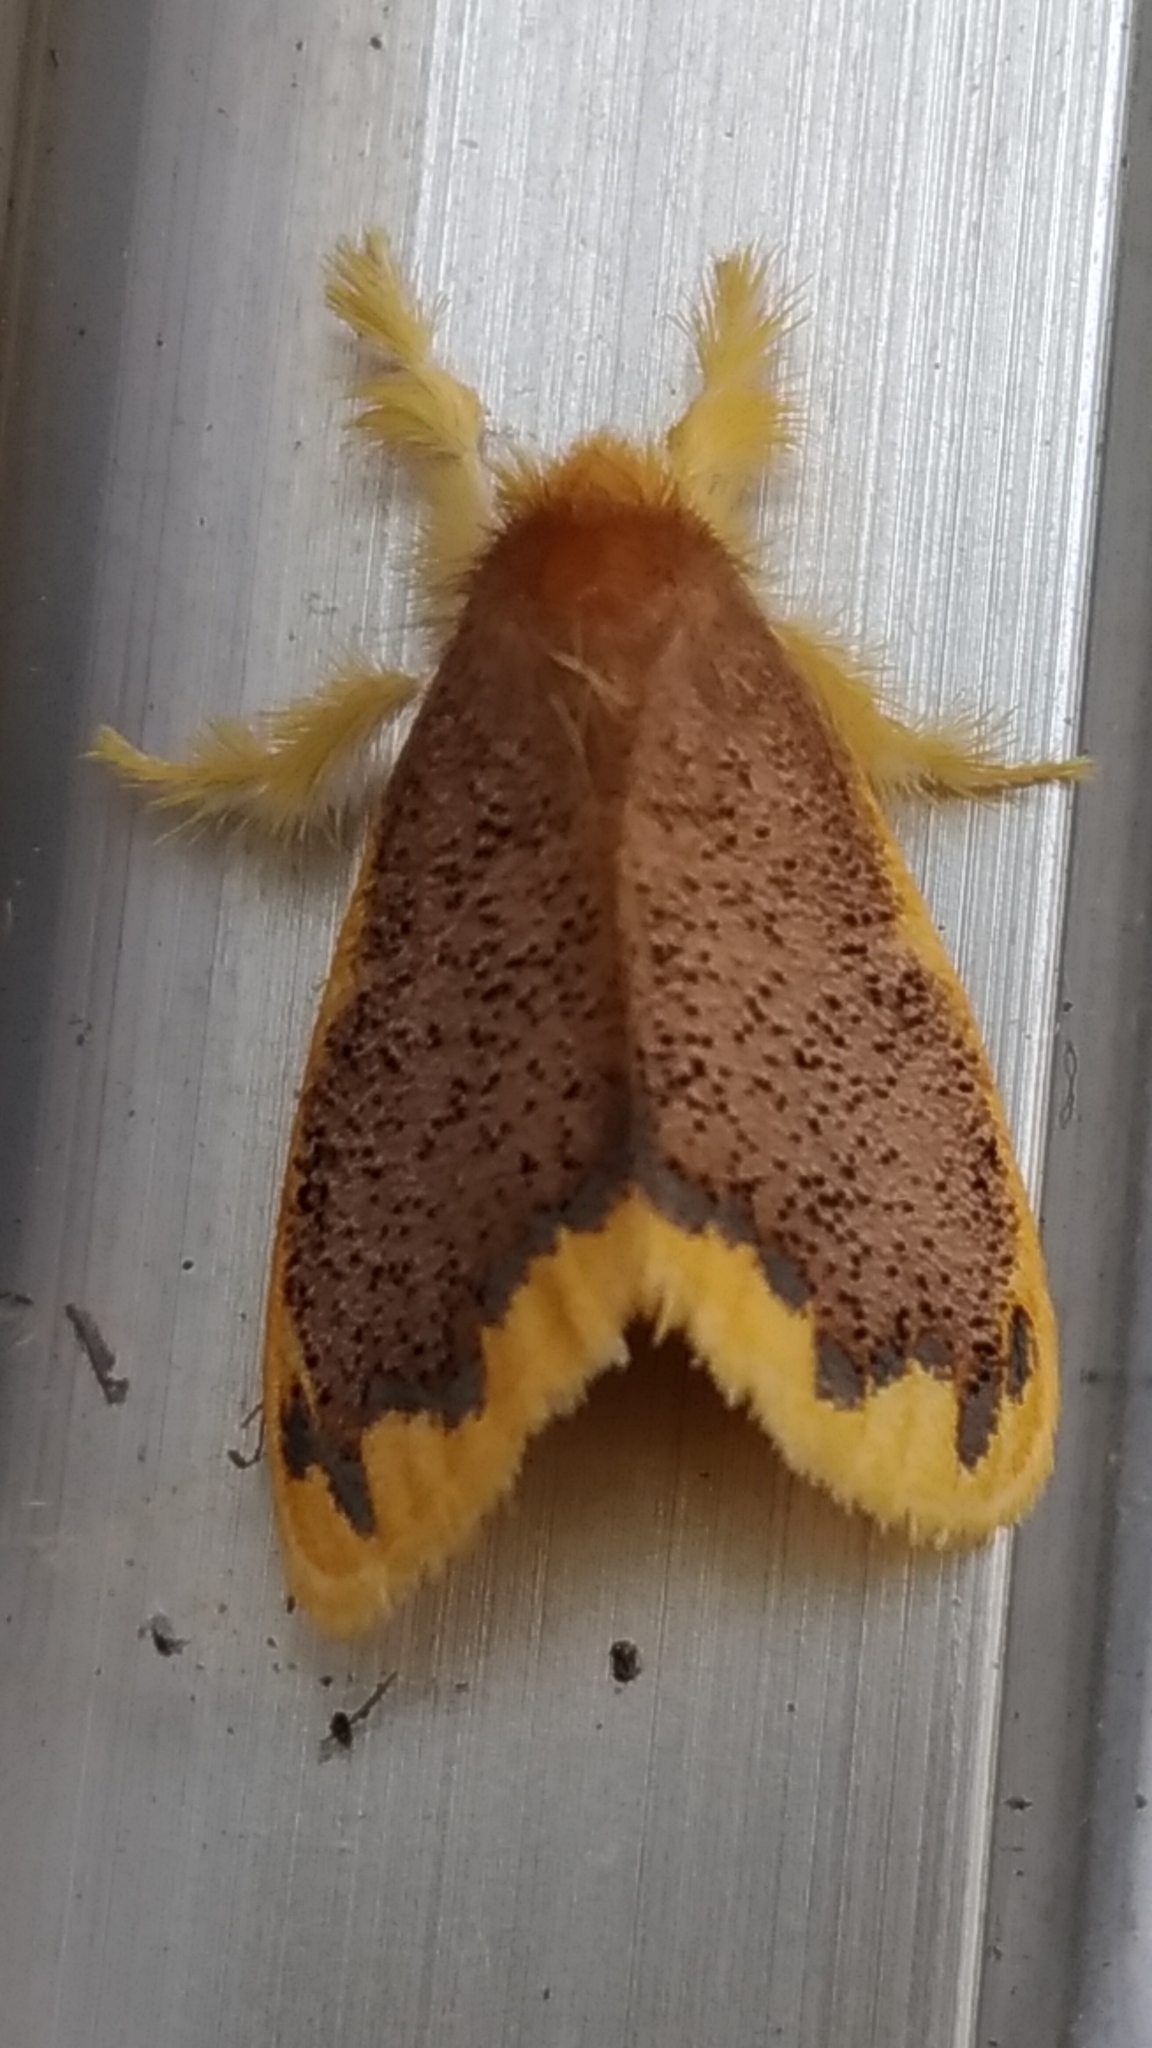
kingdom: Animalia
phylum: Arthropoda
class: Insecta
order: Lepidoptera
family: Erebidae
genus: Somena
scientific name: Somena scintillans
